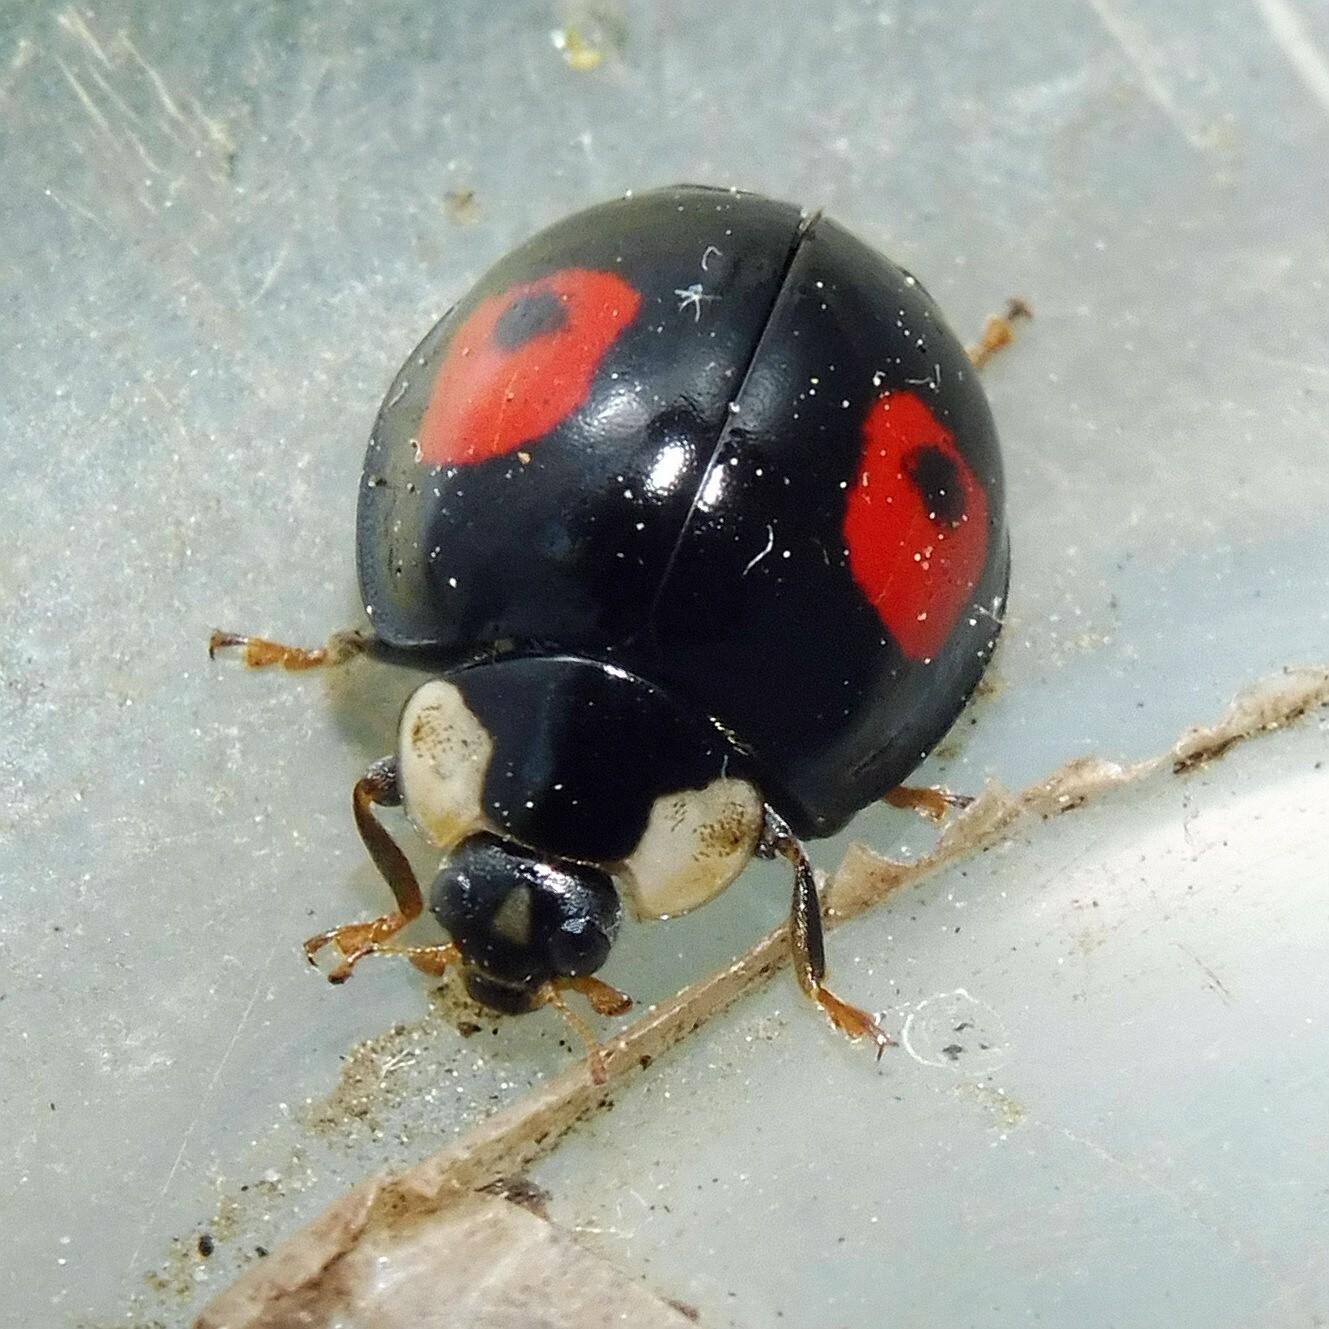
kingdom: Animalia
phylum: Arthropoda
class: Insecta
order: Coleoptera
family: Coccinellidae
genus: Harmonia
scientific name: Harmonia axyridis
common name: Harlequin ladybird
